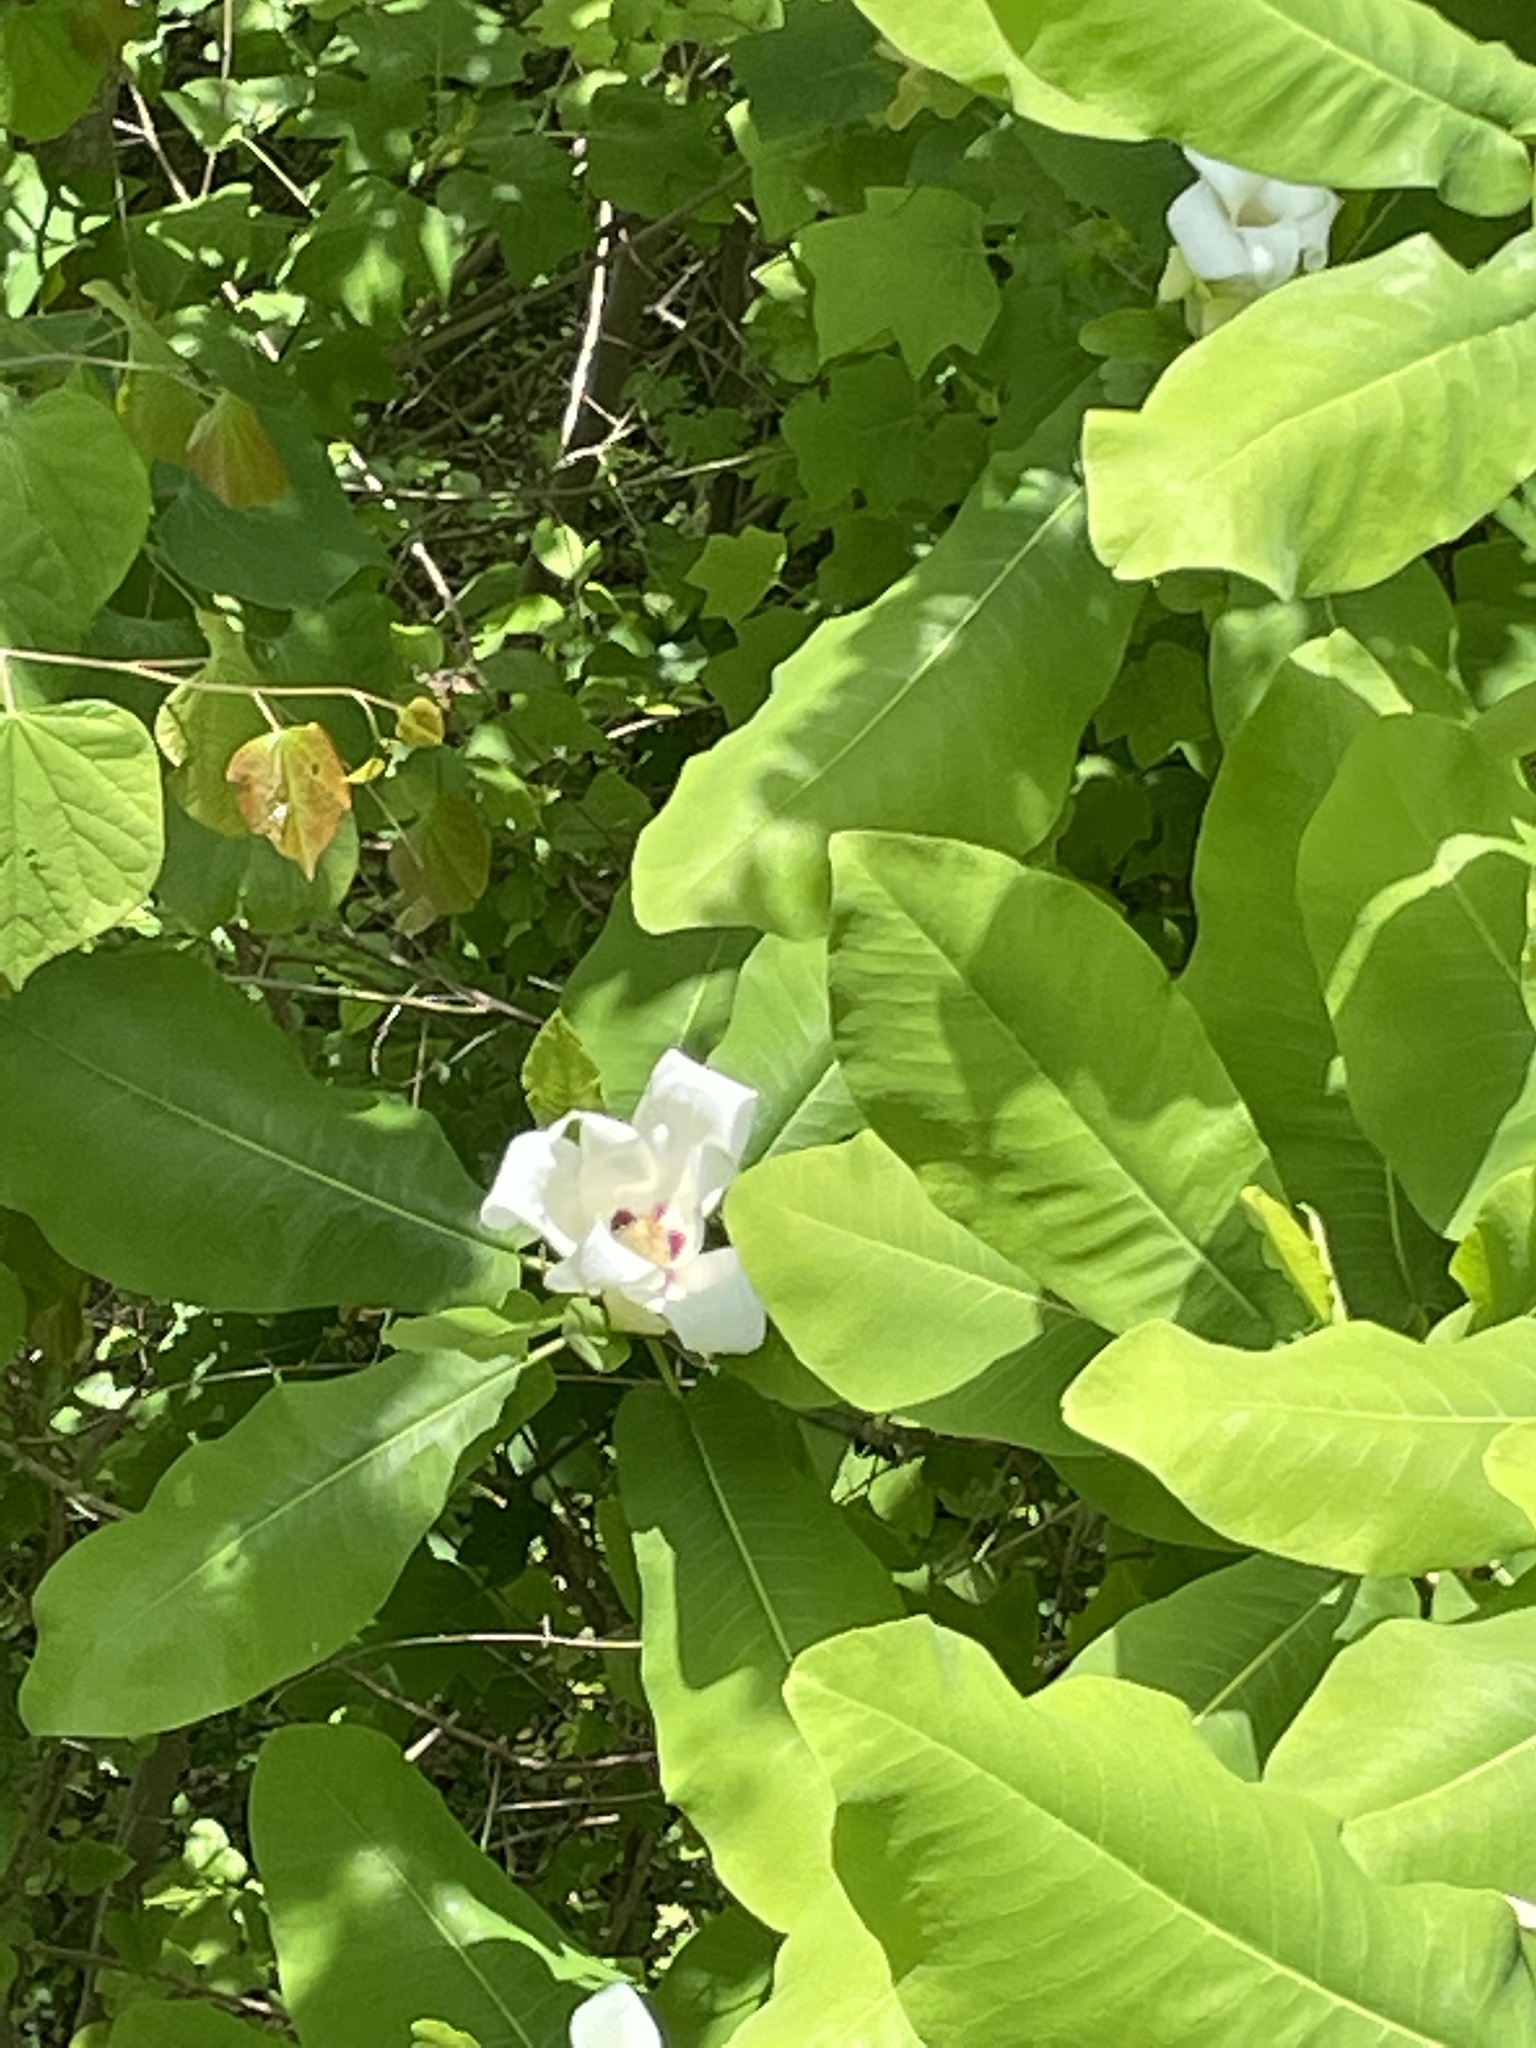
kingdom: Plantae
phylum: Tracheophyta
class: Magnoliopsida
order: Magnoliales
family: Magnoliaceae
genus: Magnolia
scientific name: Magnolia macrophylla
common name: Big-leaf magnolia
